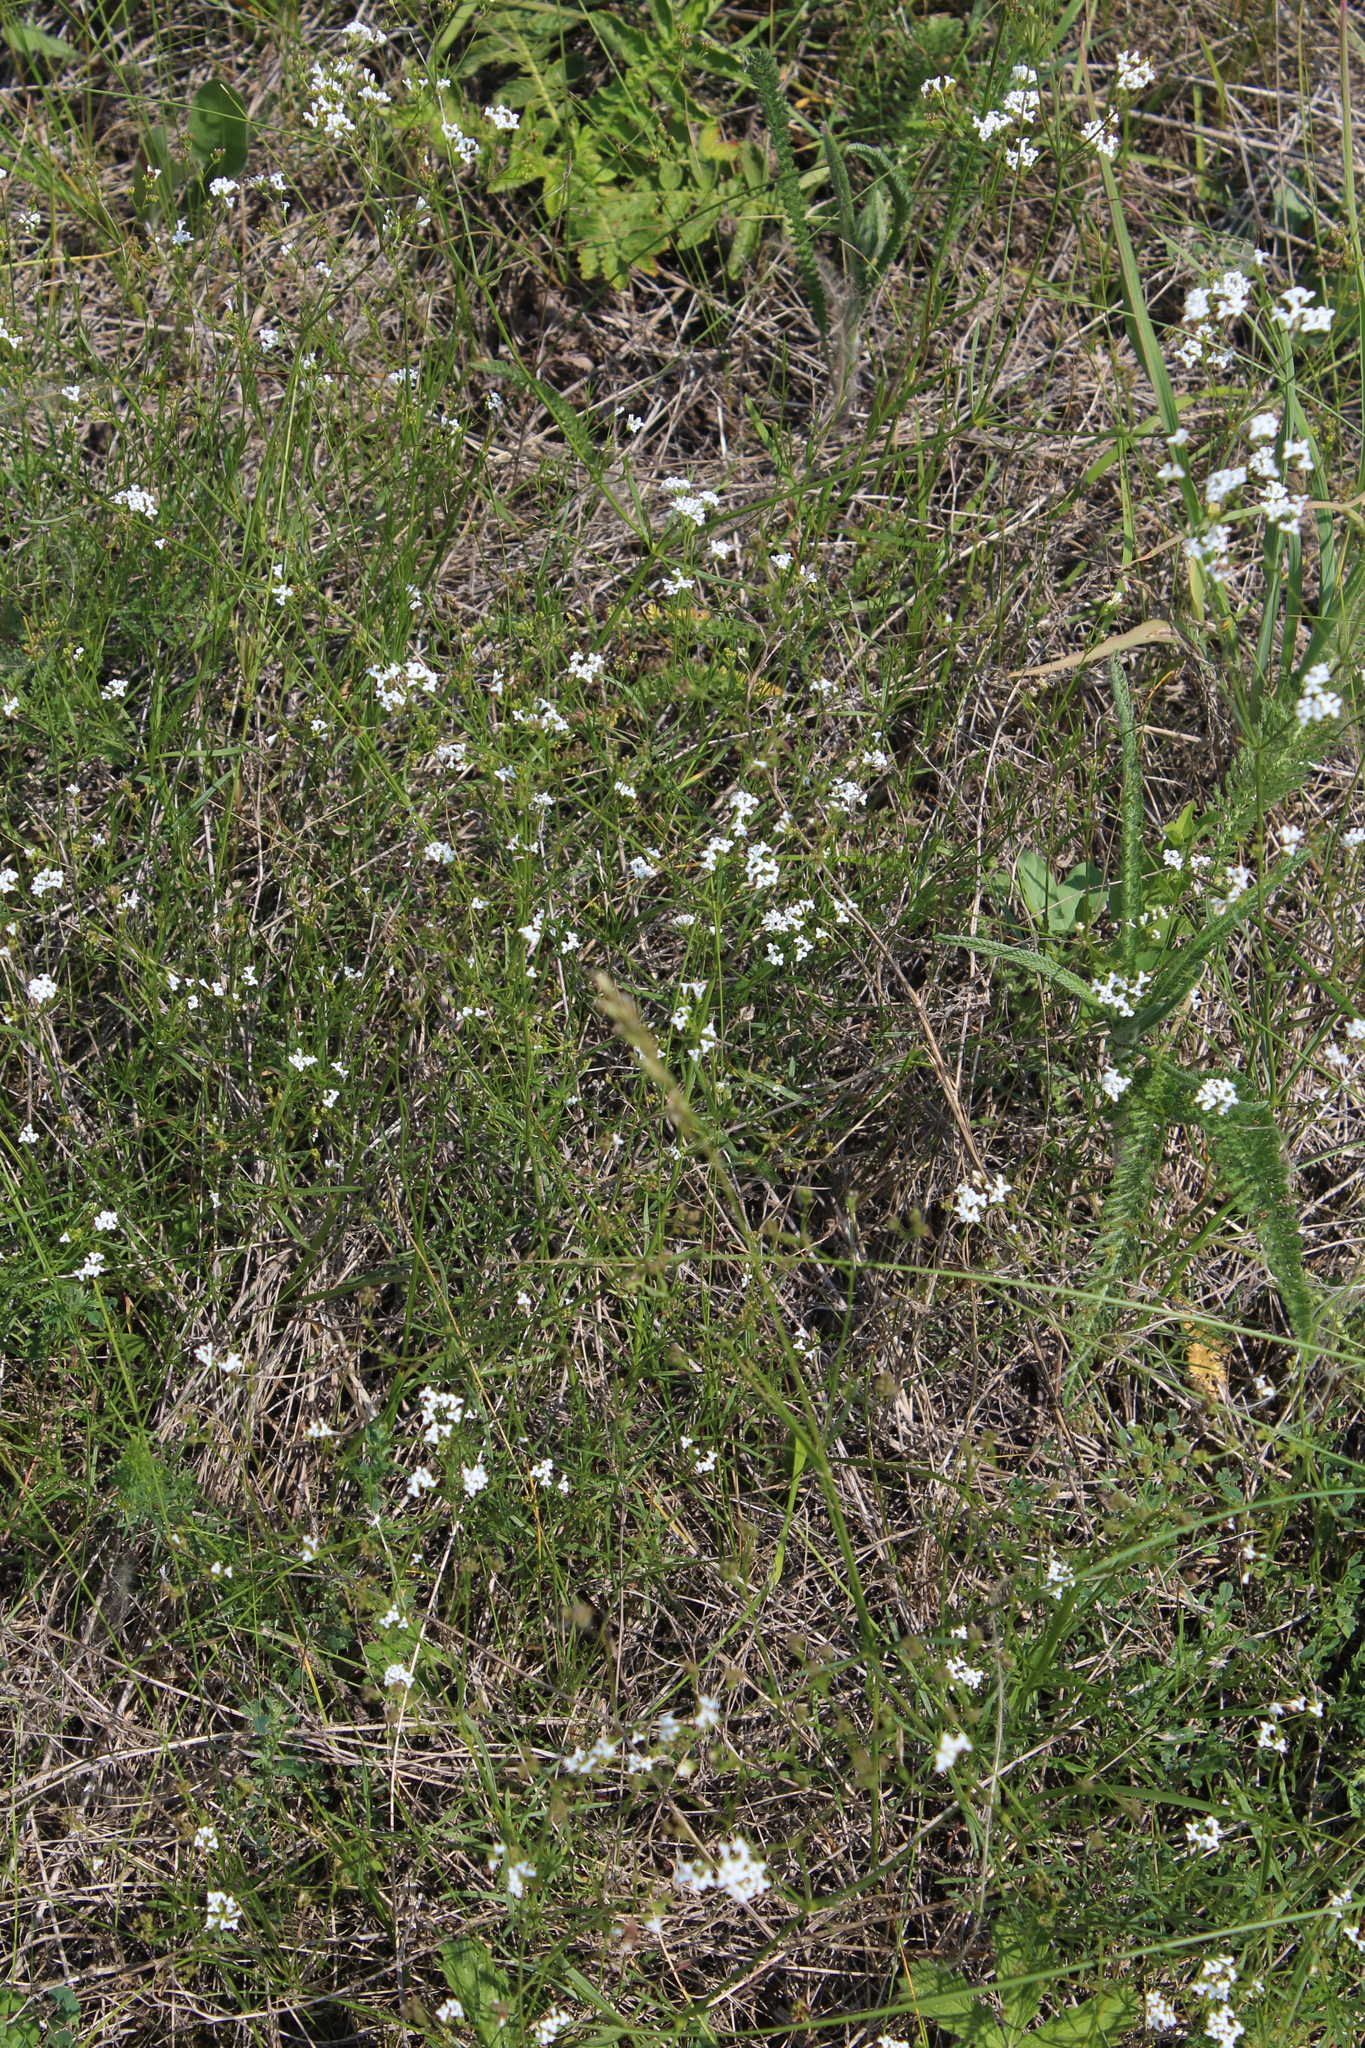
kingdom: Plantae
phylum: Tracheophyta
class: Magnoliopsida
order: Gentianales
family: Rubiaceae
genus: Asperula
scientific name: Asperula tinctoria
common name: Dyer's woodruff
